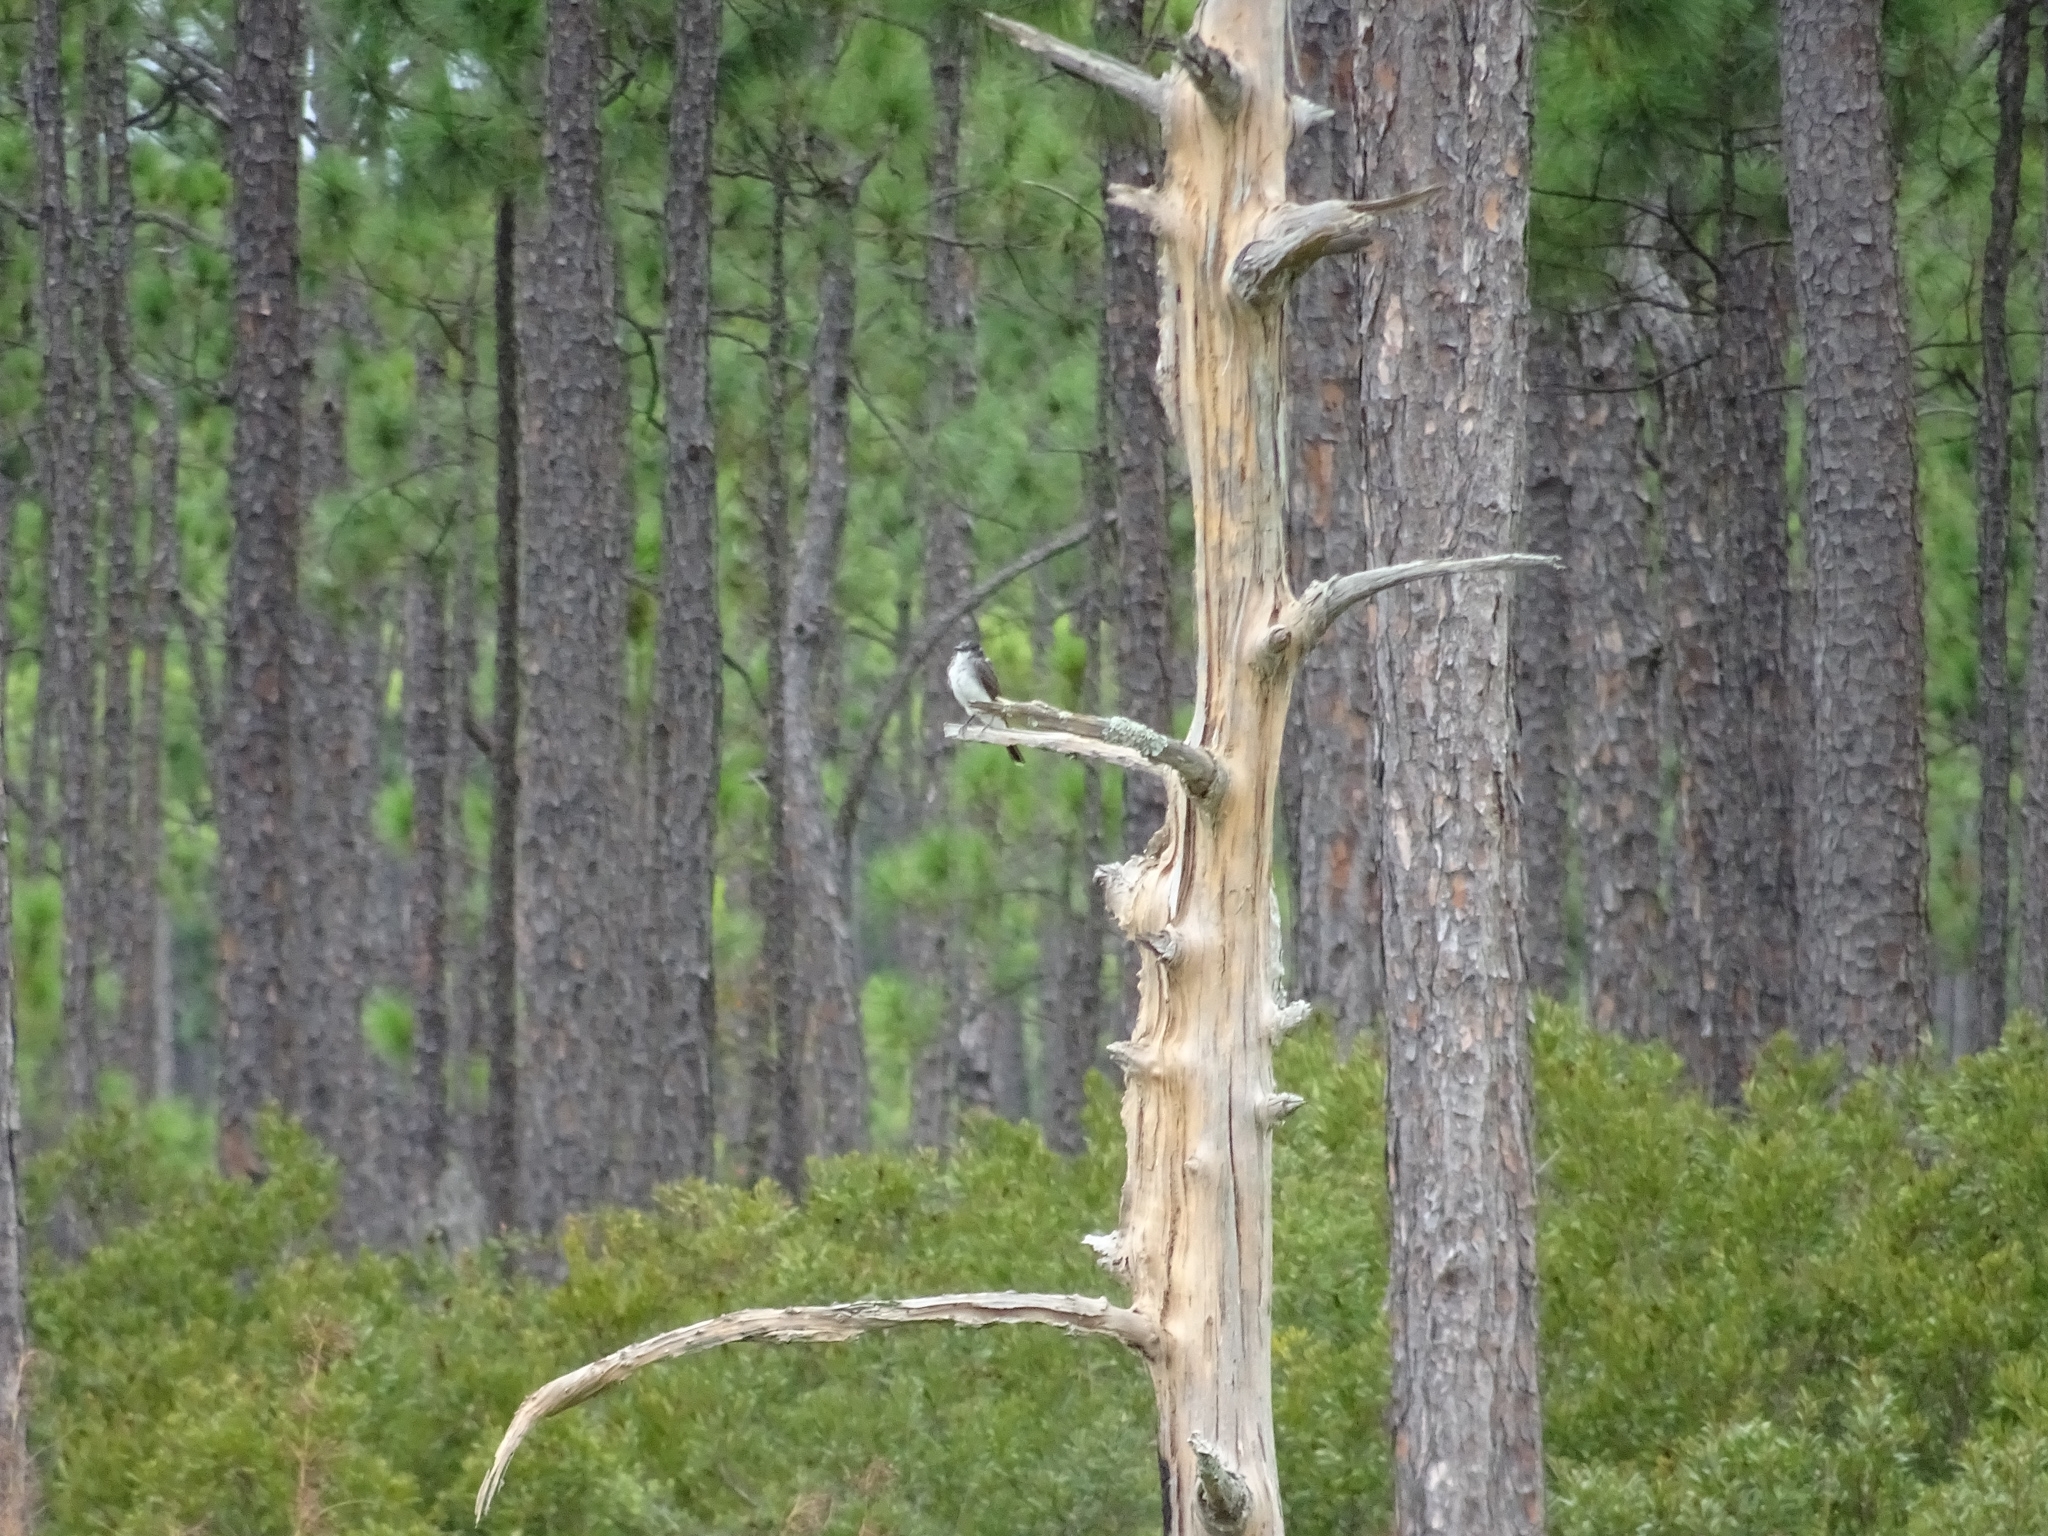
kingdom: Animalia
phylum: Chordata
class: Aves
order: Passeriformes
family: Tyrannidae
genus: Tyrannus
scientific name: Tyrannus tyrannus
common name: Eastern kingbird
